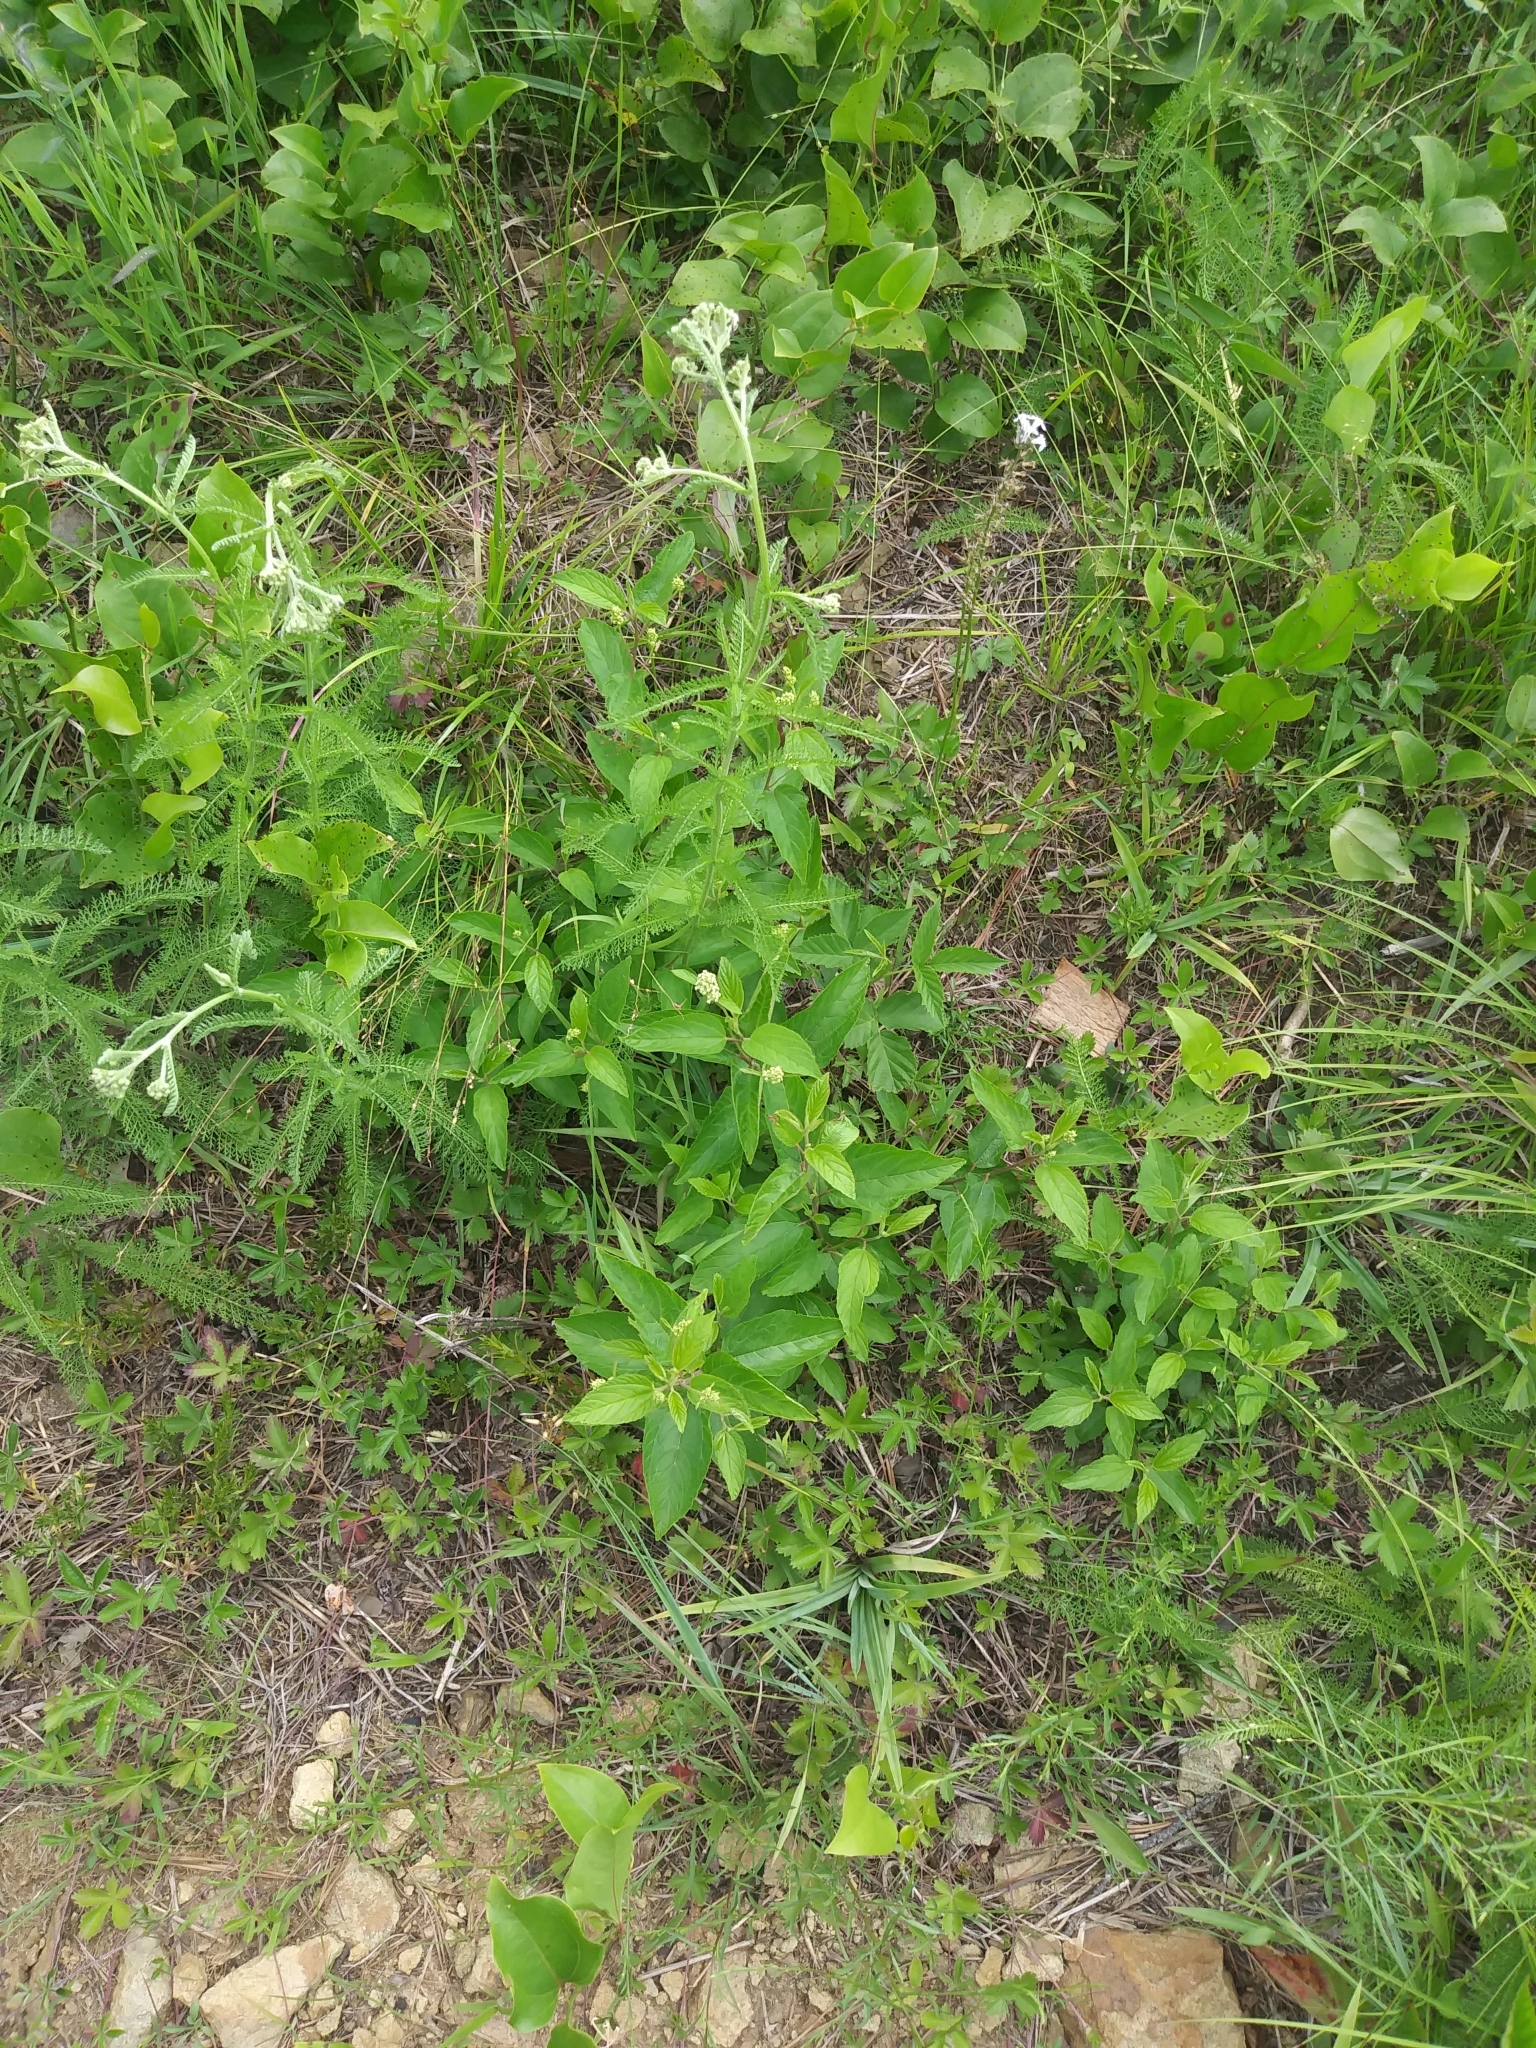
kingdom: Plantae
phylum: Tracheophyta
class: Magnoliopsida
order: Rosales
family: Rhamnaceae
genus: Ceanothus
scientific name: Ceanothus americanus
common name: Redroot
